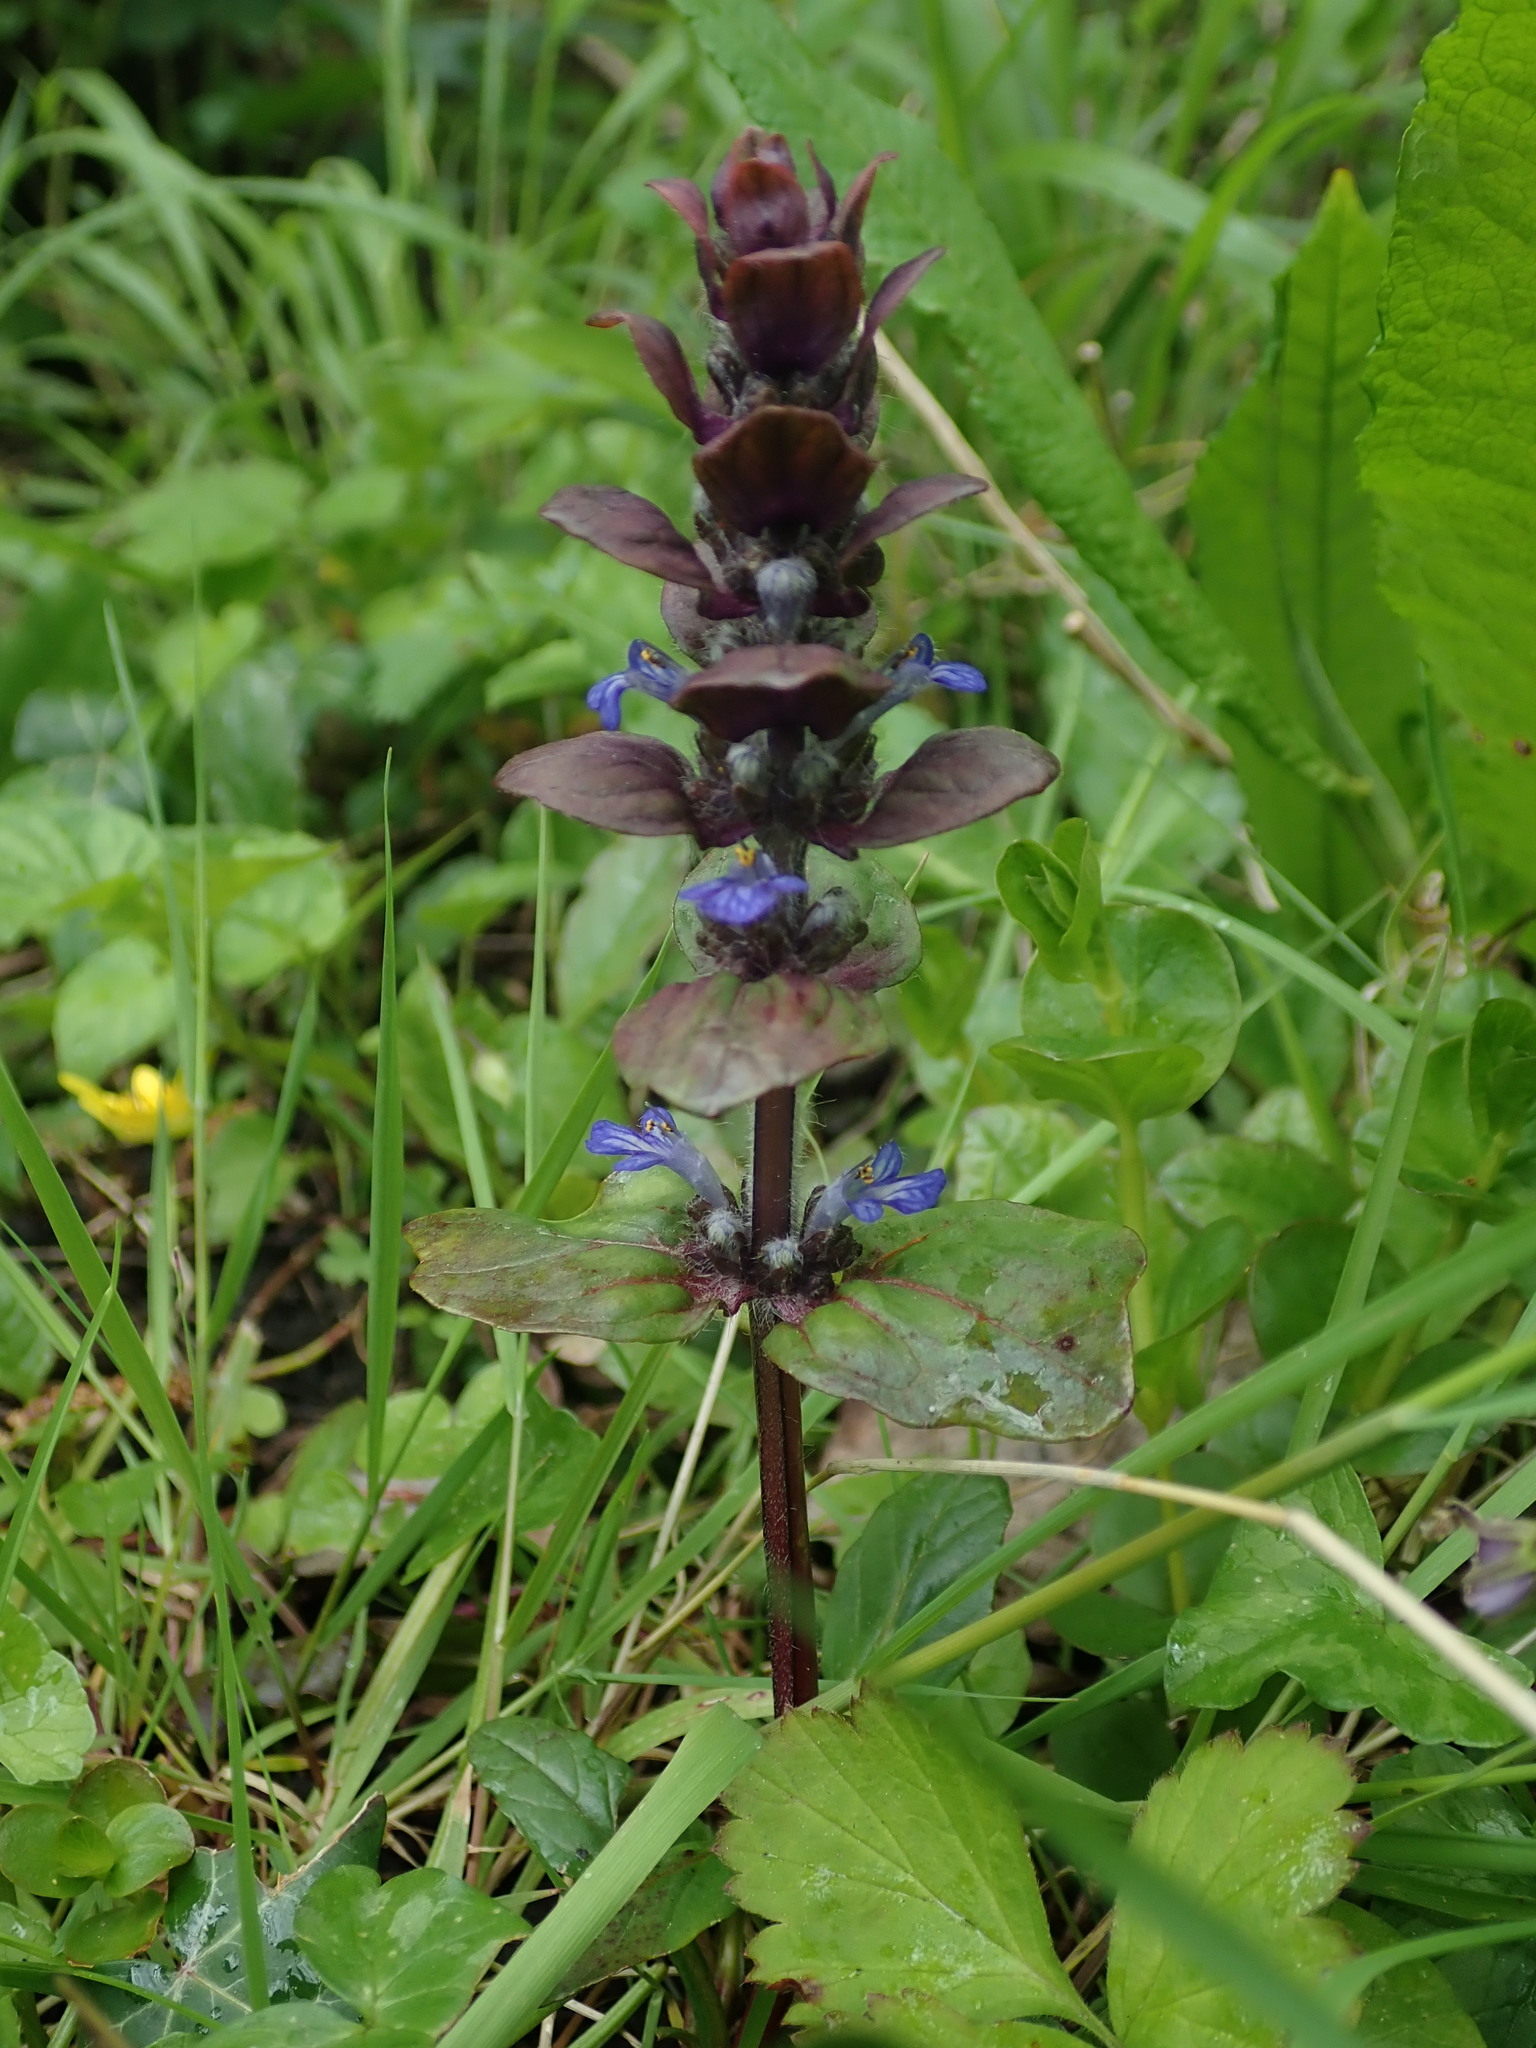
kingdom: Plantae
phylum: Tracheophyta
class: Magnoliopsida
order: Lamiales
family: Lamiaceae
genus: Ajuga
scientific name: Ajuga reptans
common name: Bugle
